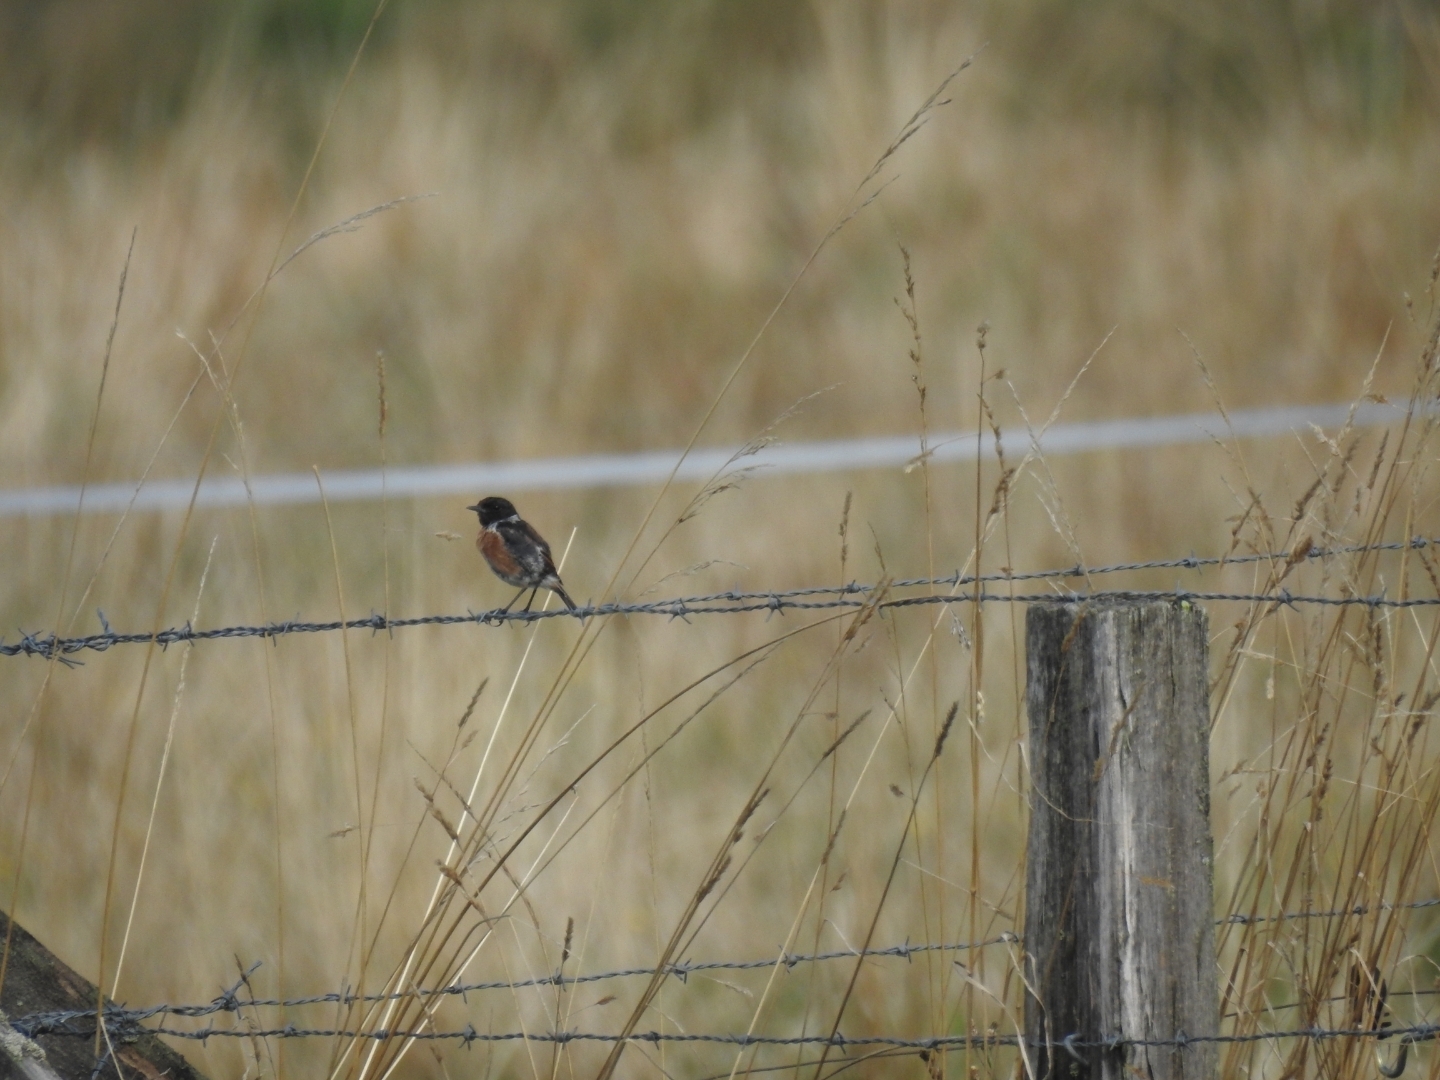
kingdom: Animalia
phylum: Chordata
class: Aves
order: Passeriformes
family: Muscicapidae
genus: Saxicola
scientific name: Saxicola rubicola
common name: European stonechat
